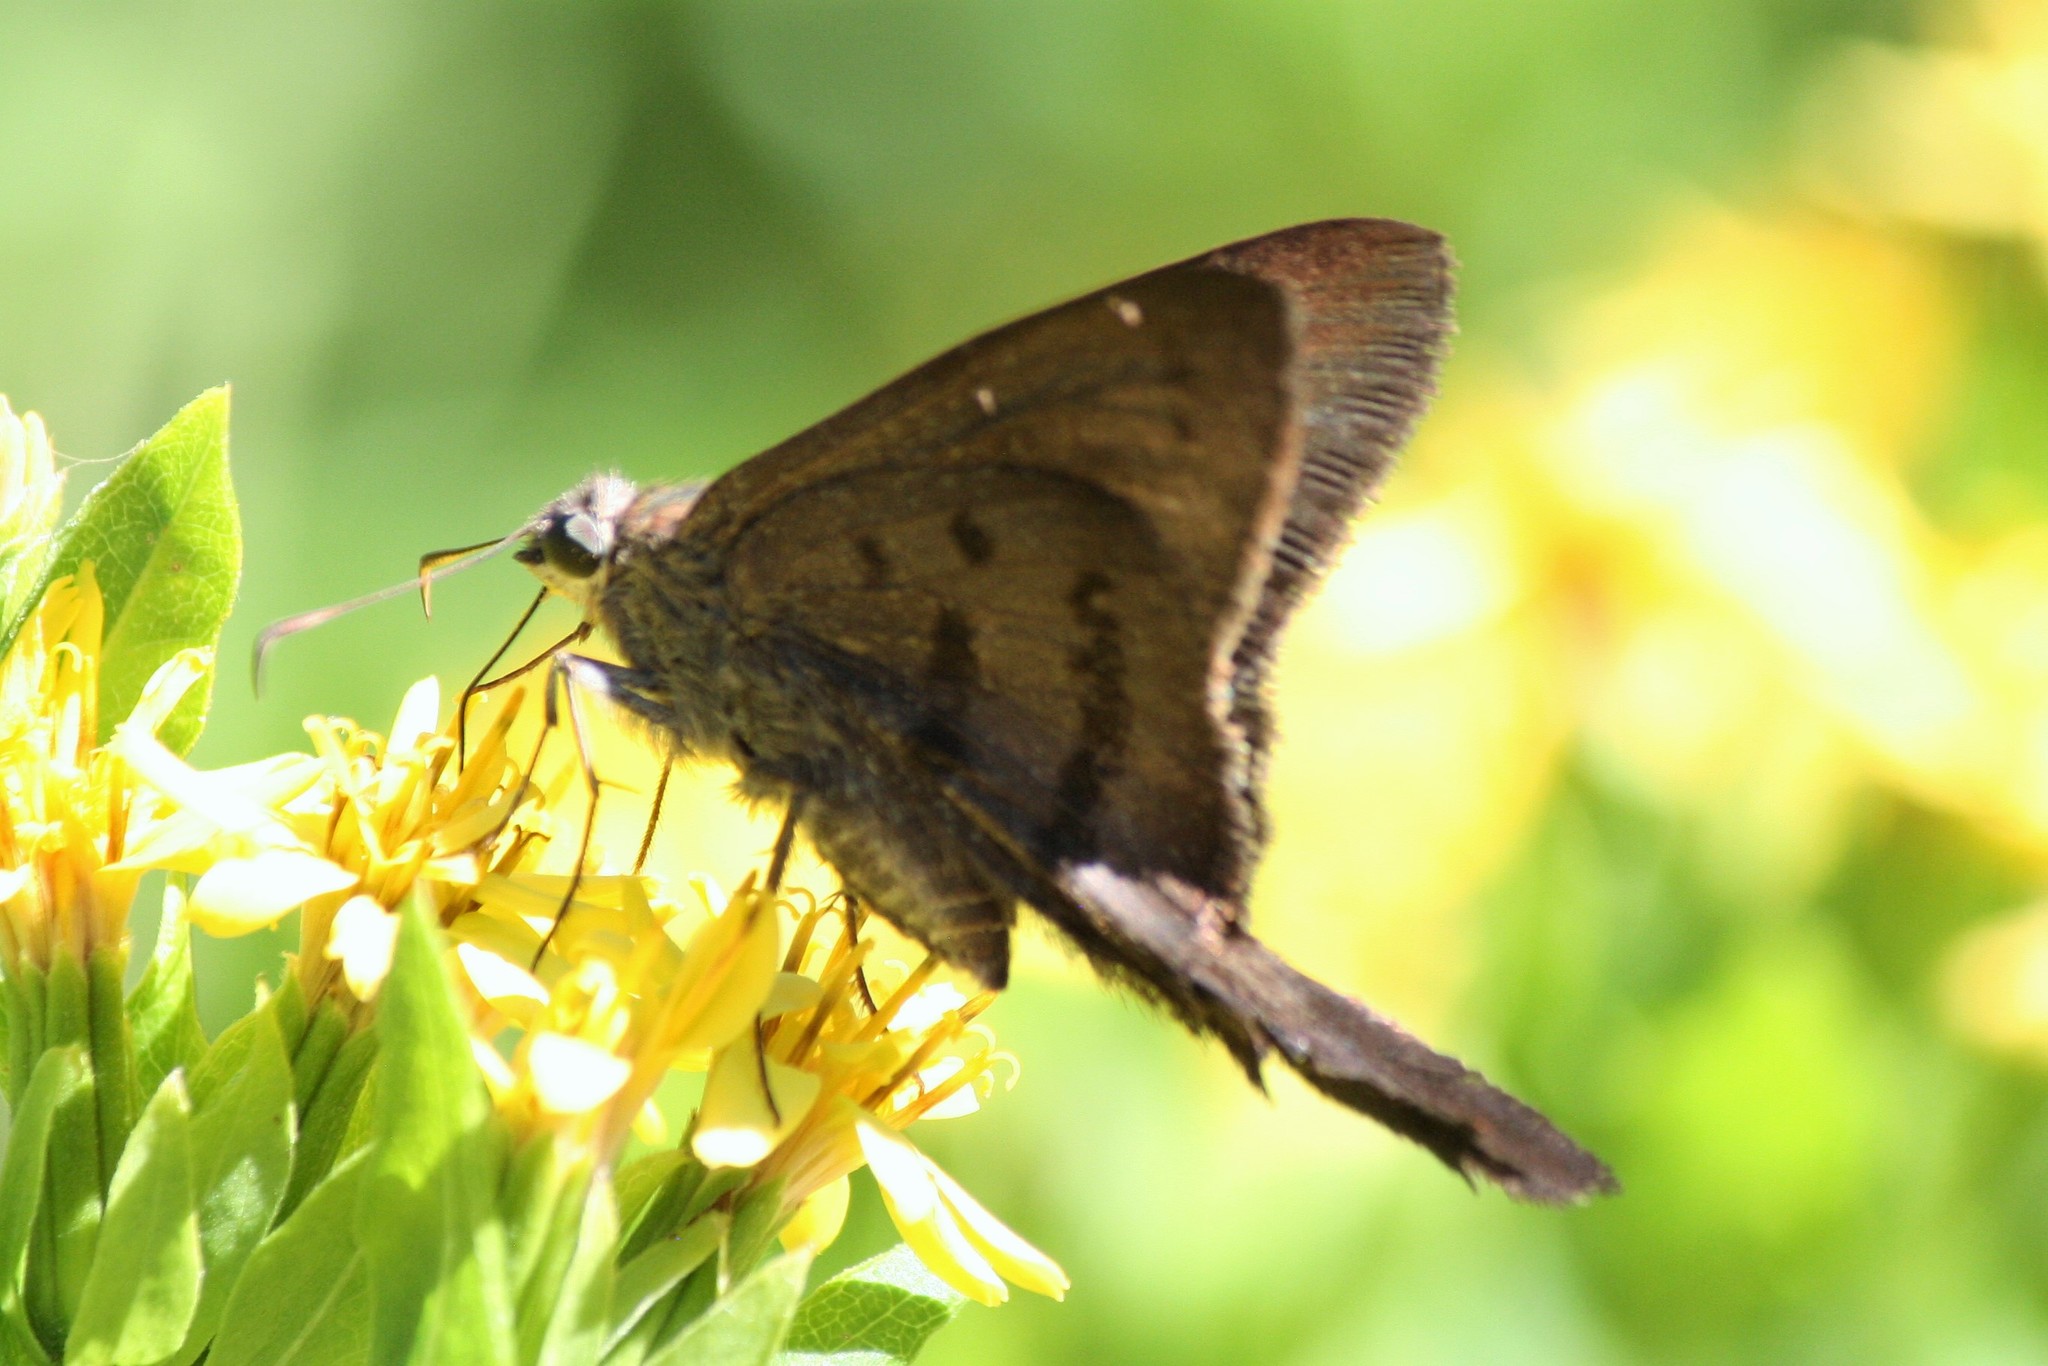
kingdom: Animalia
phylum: Arthropoda
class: Insecta
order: Lepidoptera
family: Hesperiidae
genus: Urbanus
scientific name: Urbanus procne
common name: Brown longtail
